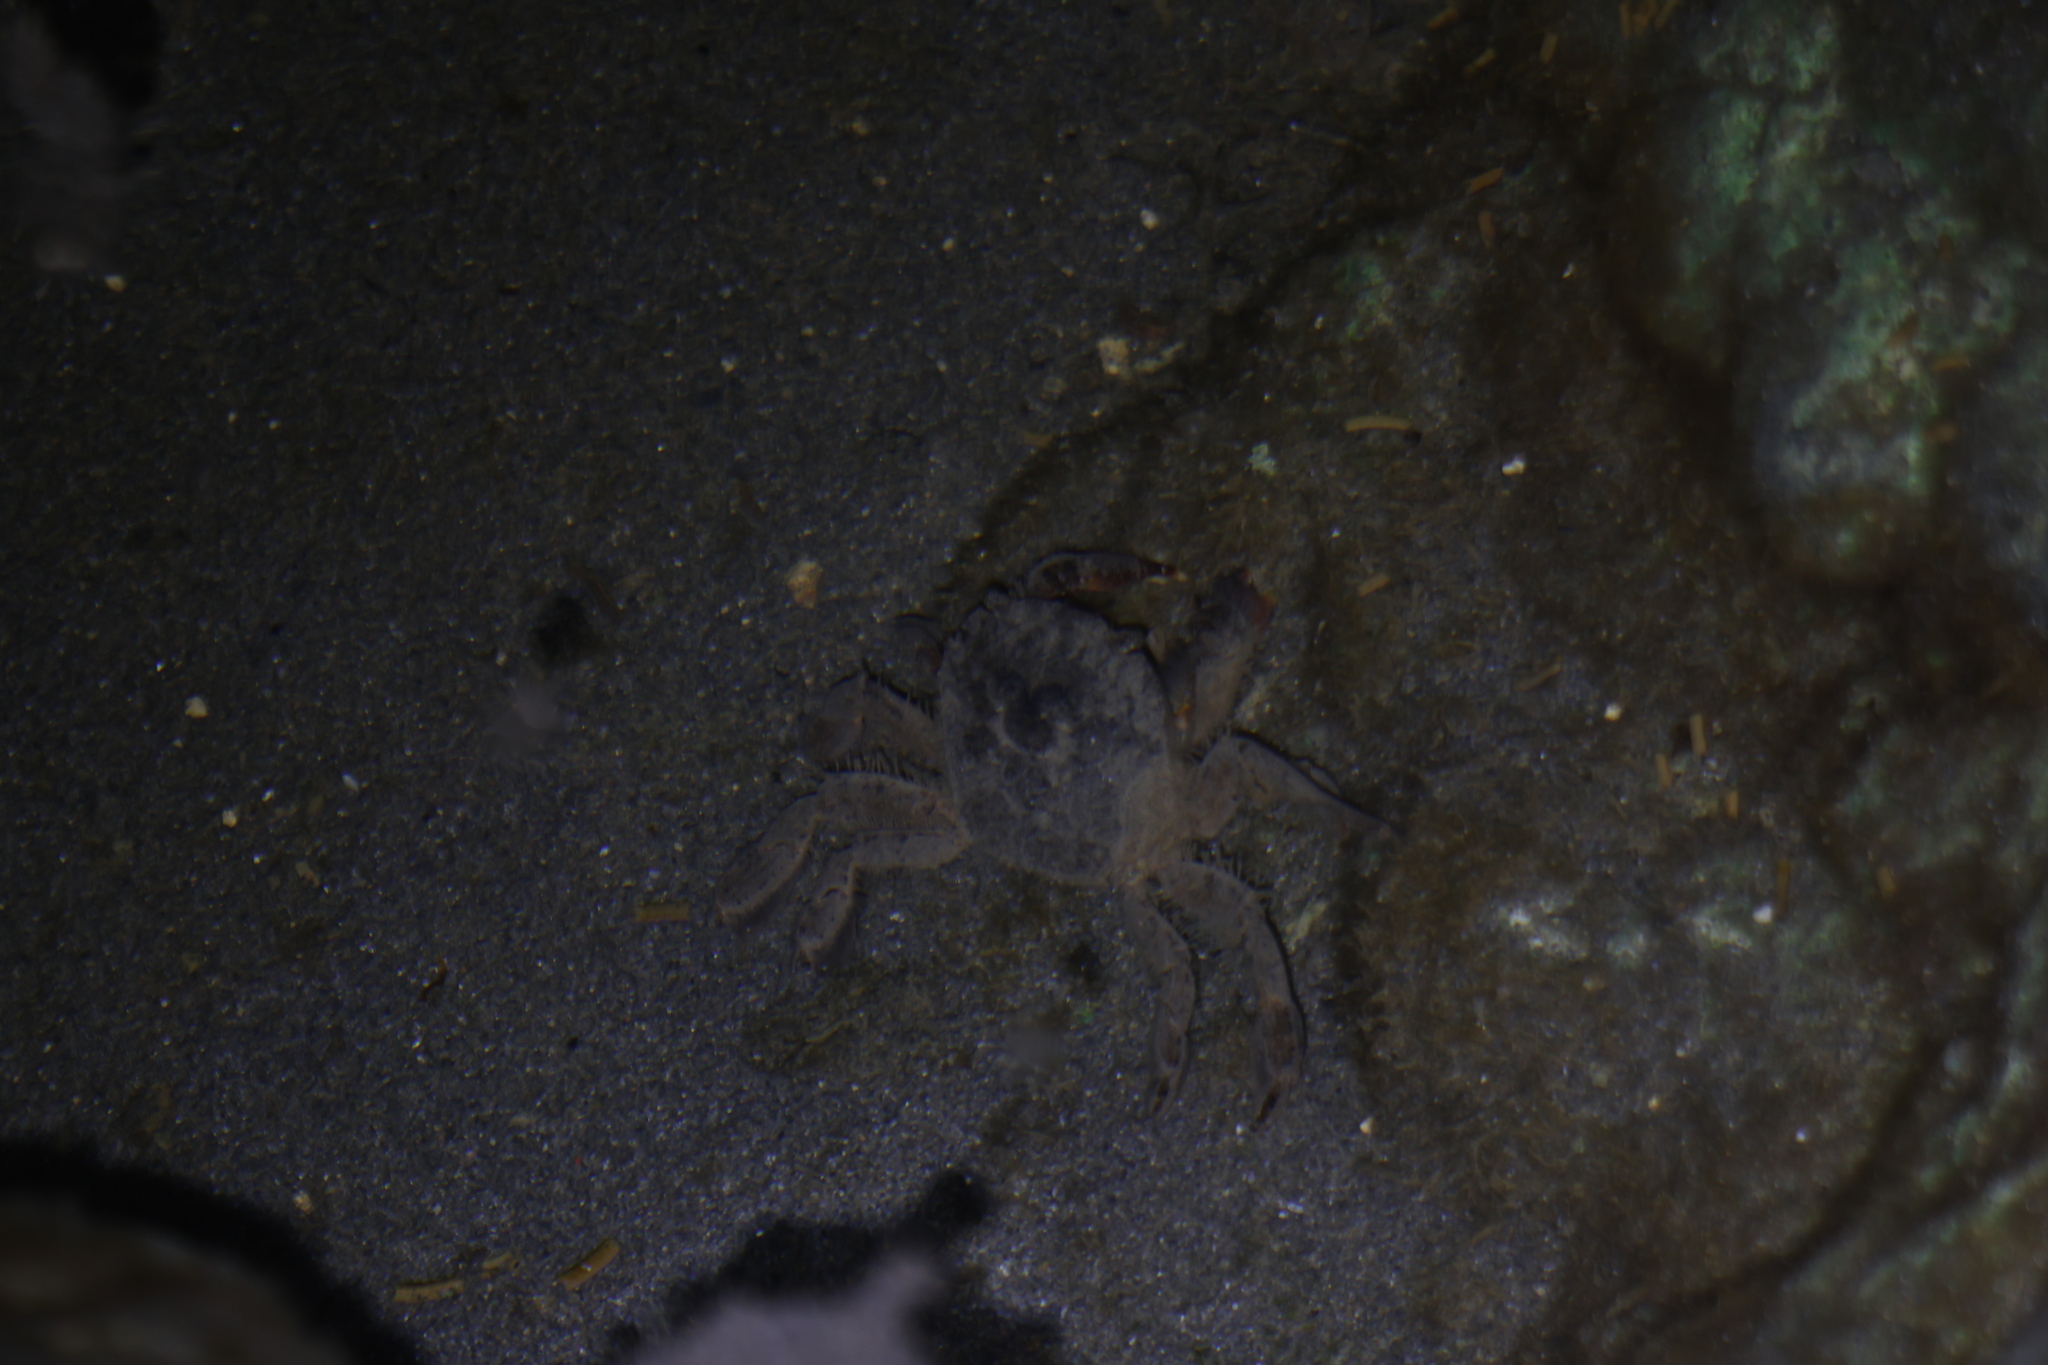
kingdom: Animalia
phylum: Arthropoda
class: Malacostraca
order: Decapoda
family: Varunidae
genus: Varuna
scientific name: Varuna litterata
